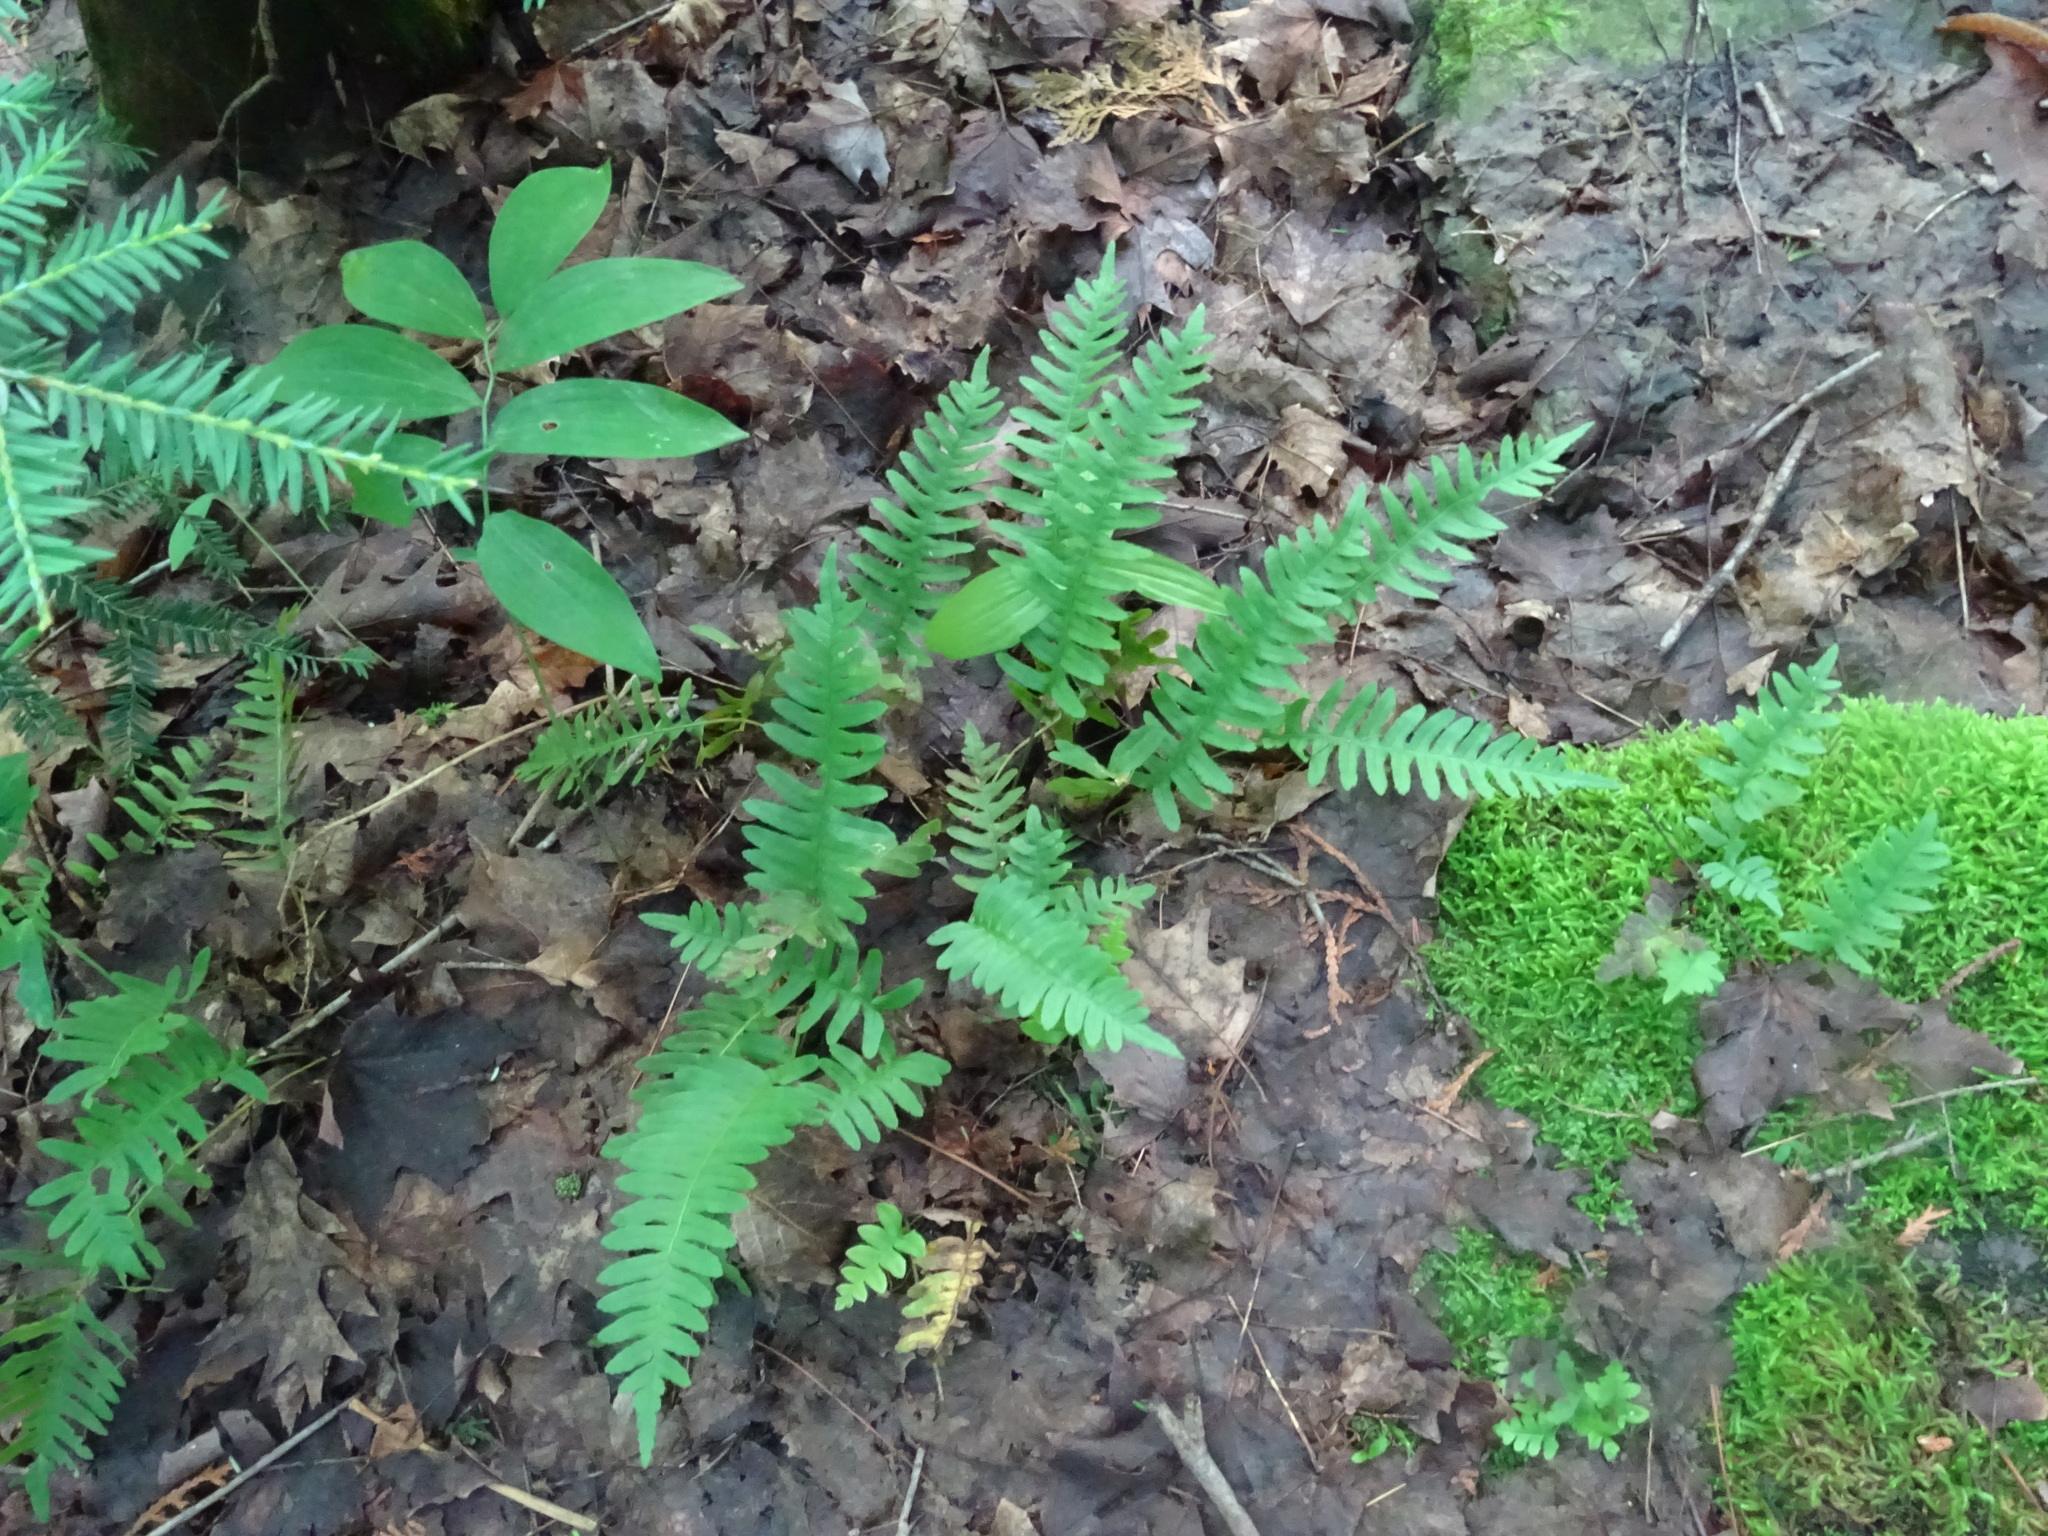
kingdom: Plantae
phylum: Tracheophyta
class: Polypodiopsida
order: Polypodiales
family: Polypodiaceae
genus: Polypodium
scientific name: Polypodium virginianum
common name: American wall fern
